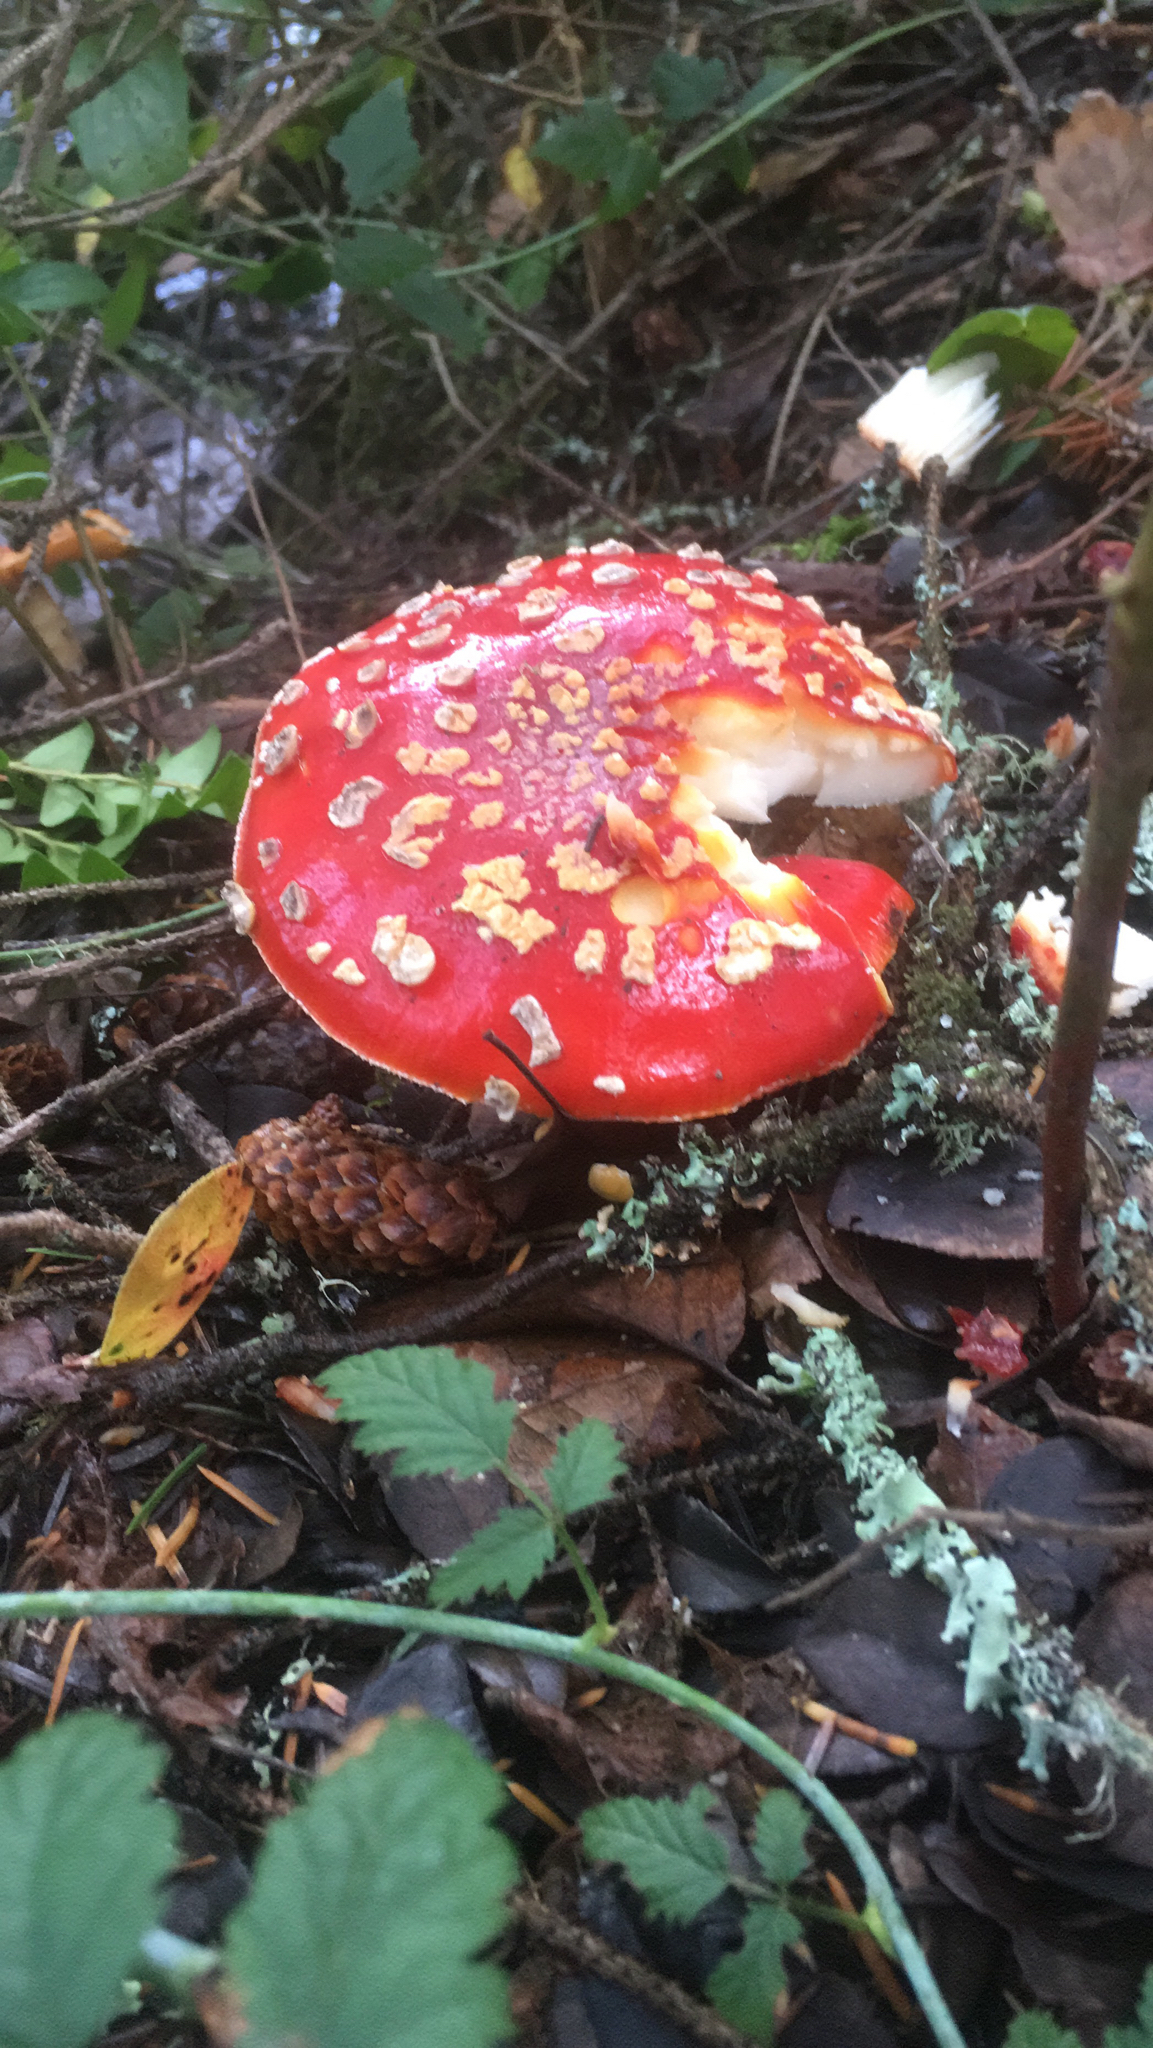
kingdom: Fungi
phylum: Basidiomycota
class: Agaricomycetes
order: Agaricales
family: Amanitaceae
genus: Amanita
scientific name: Amanita muscaria
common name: Fly agaric
